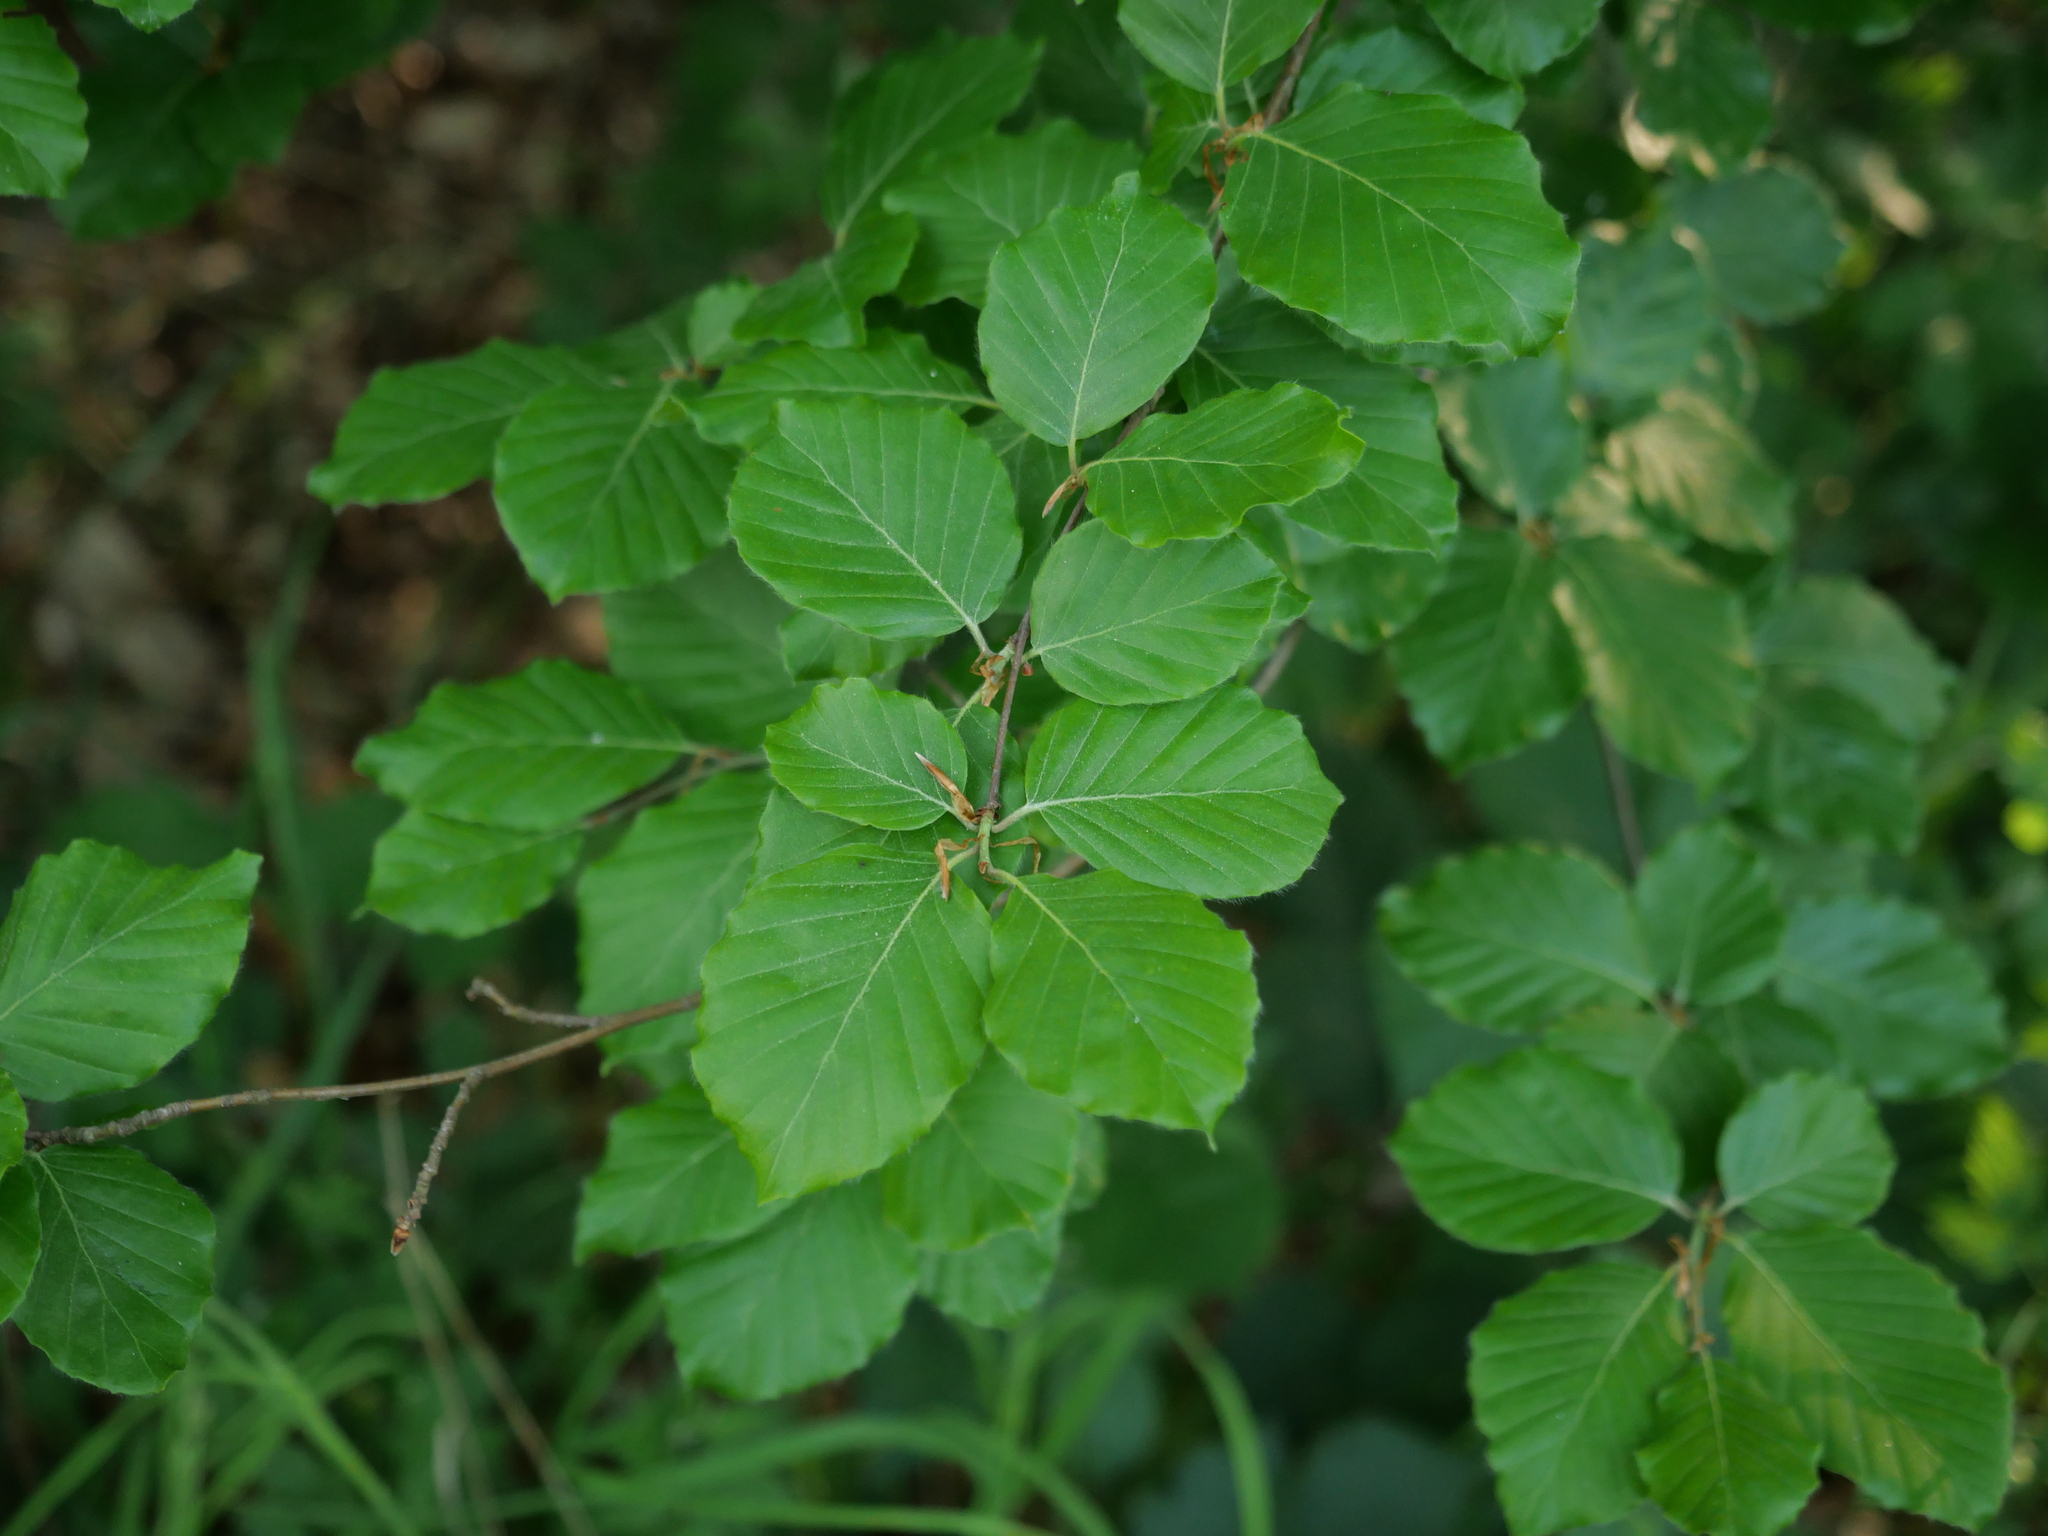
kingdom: Plantae
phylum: Tracheophyta
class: Magnoliopsida
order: Fagales
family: Fagaceae
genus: Fagus
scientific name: Fagus sylvatica
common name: Beech
